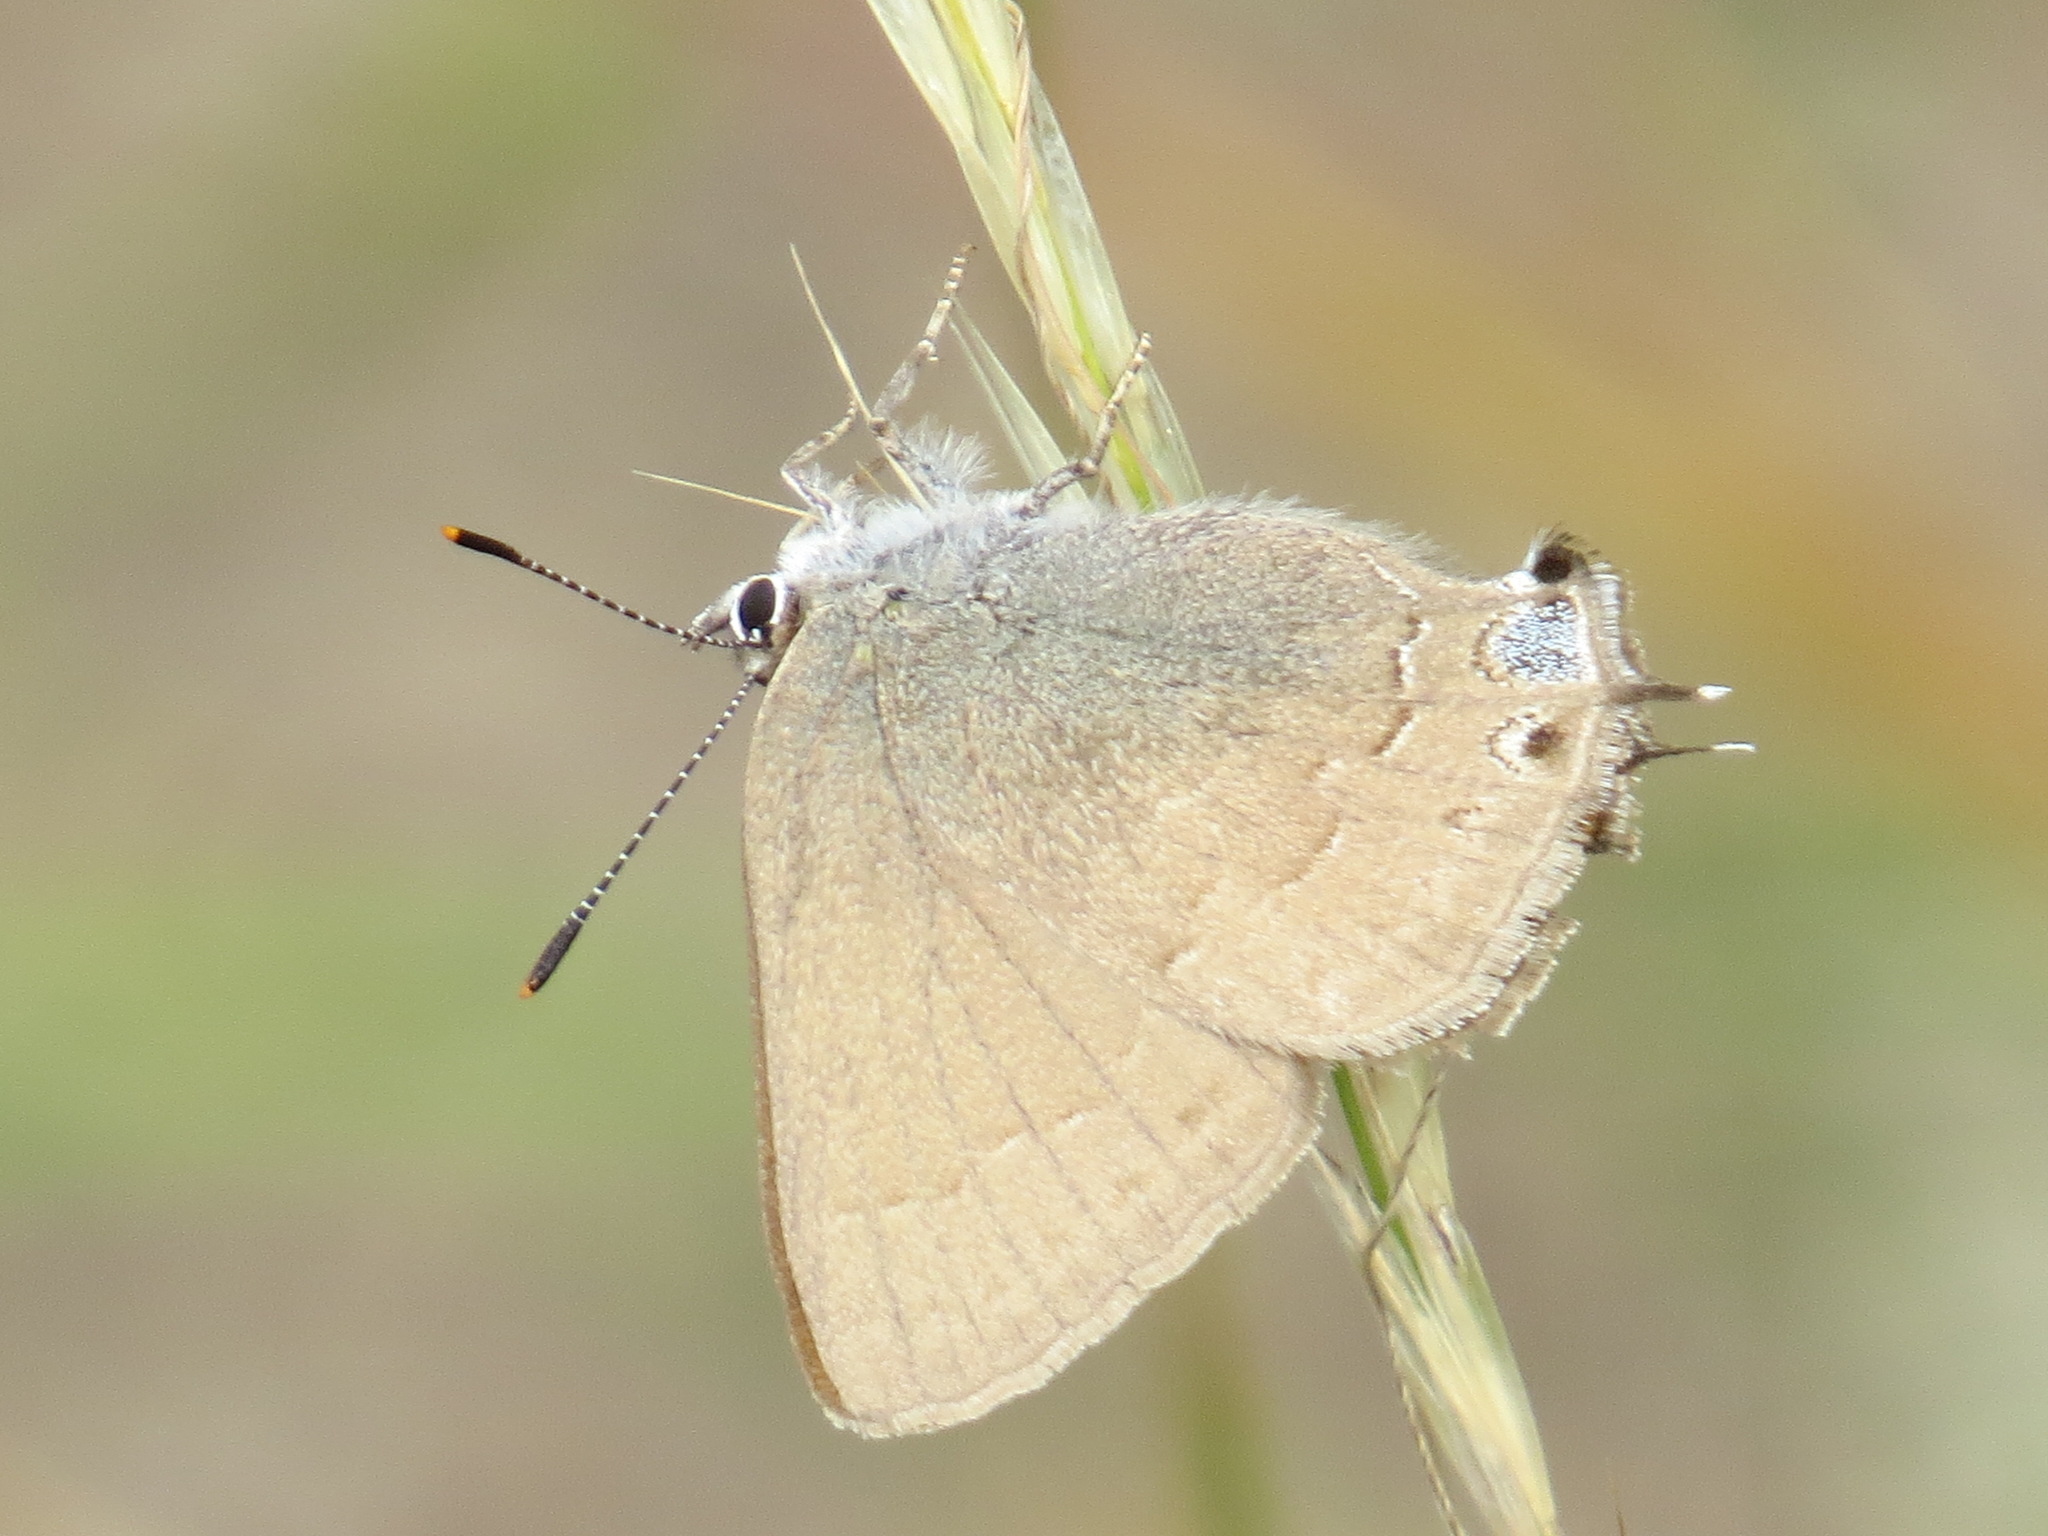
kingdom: Animalia
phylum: Arthropoda
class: Insecta
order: Lepidoptera
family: Lycaenidae
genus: Strymon
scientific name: Strymon saepium
